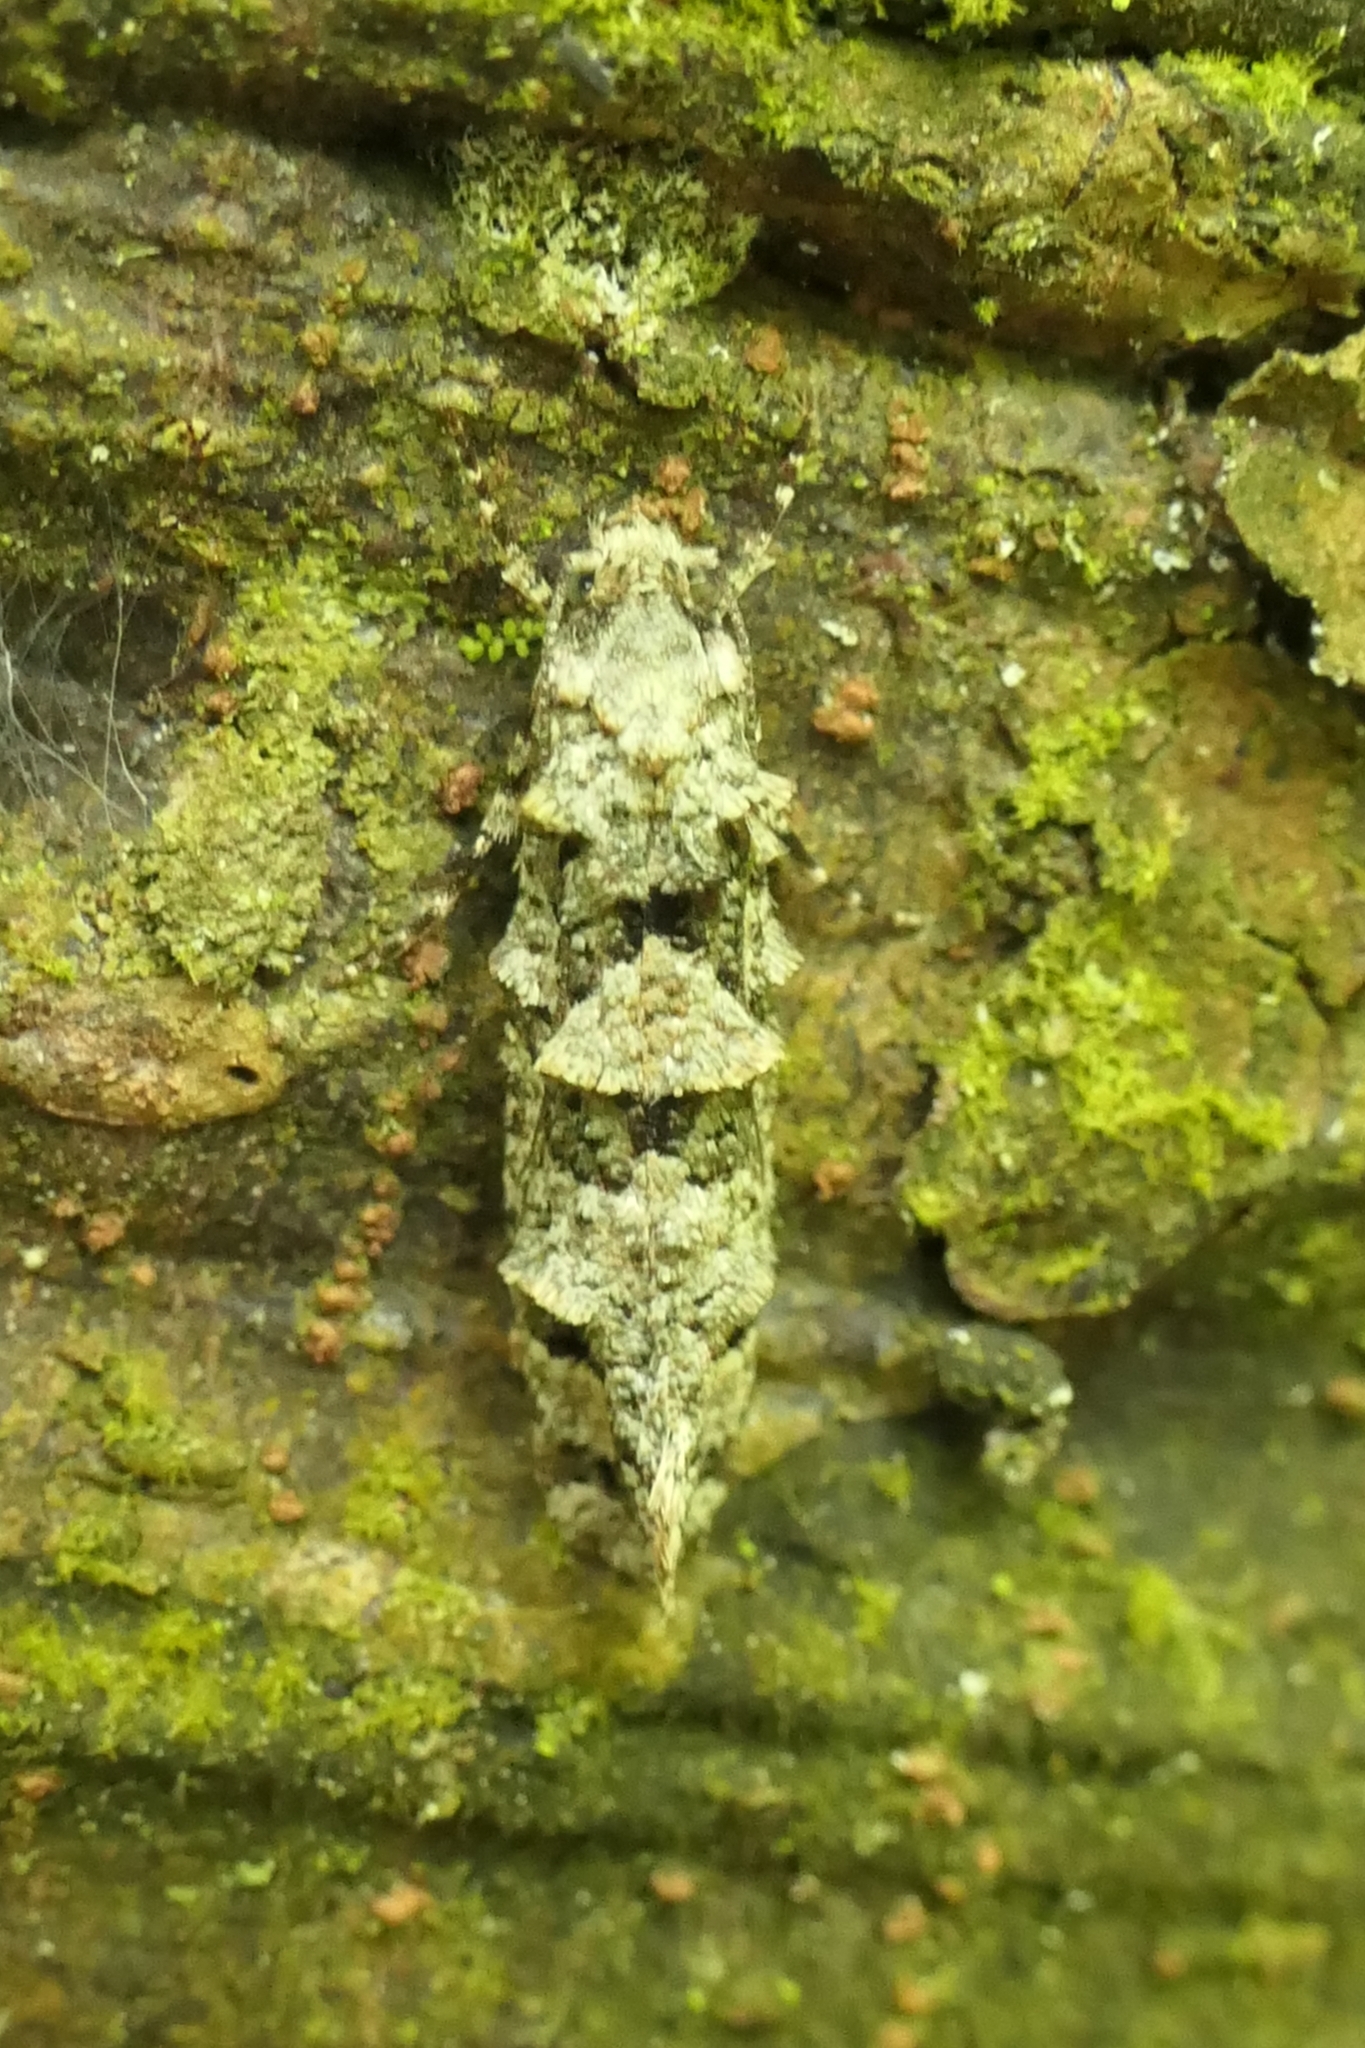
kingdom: Animalia
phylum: Arthropoda
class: Insecta
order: Lepidoptera
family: Tineidae
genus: Lysiphragma
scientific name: Lysiphragma howesii
